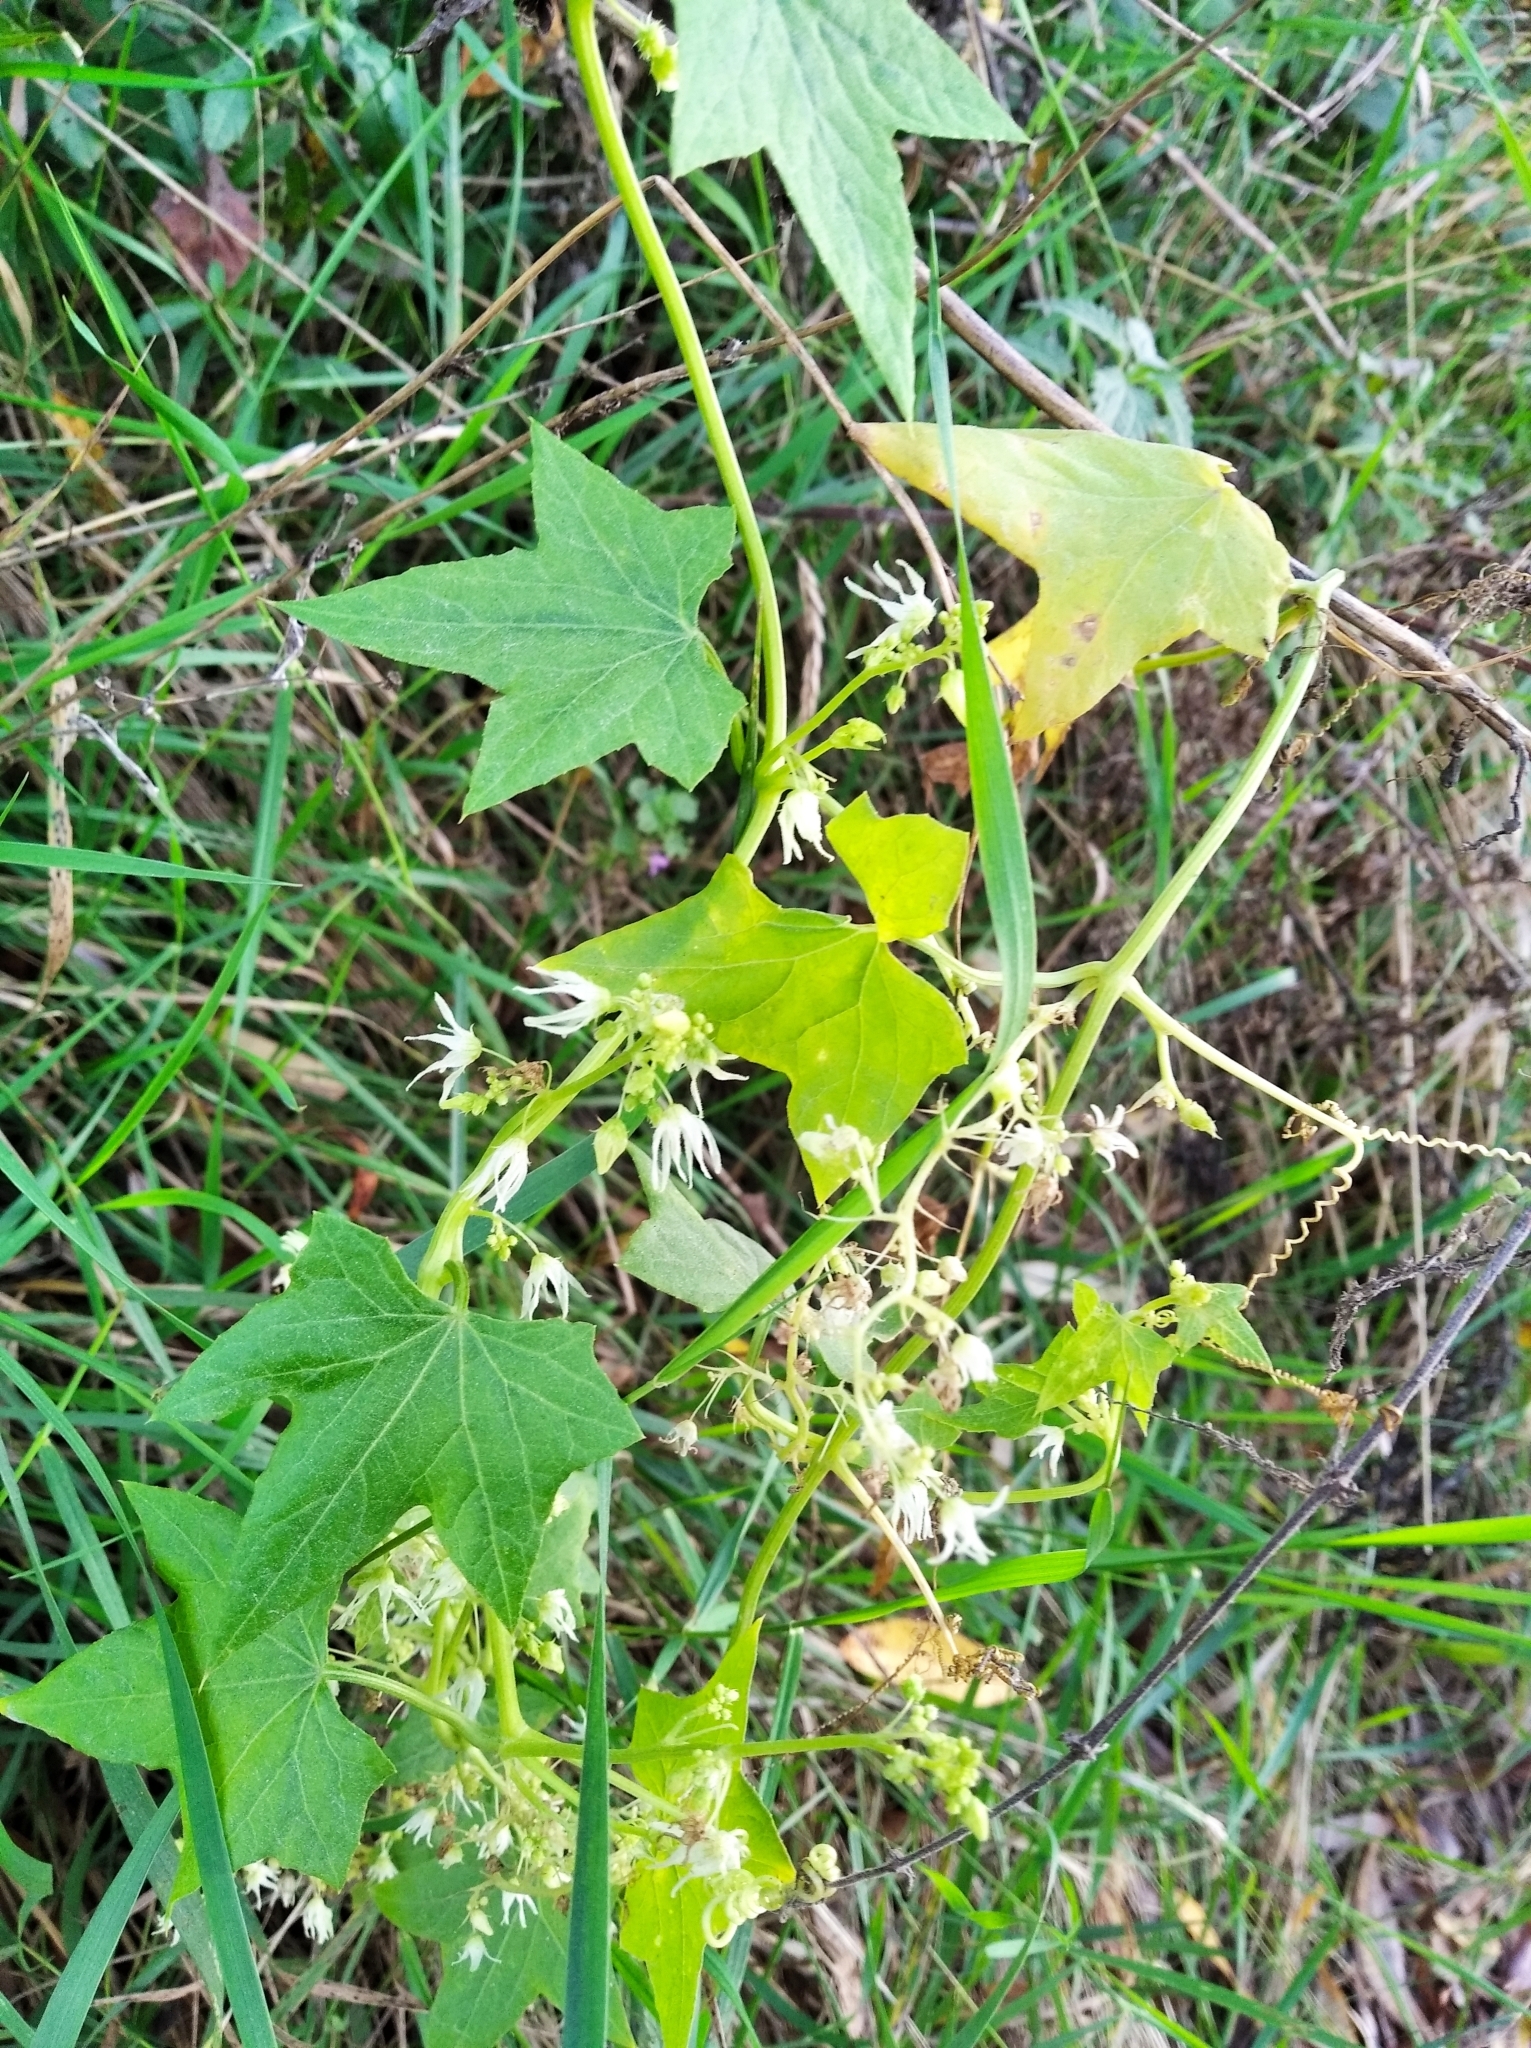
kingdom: Plantae
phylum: Tracheophyta
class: Magnoliopsida
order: Cucurbitales
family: Cucurbitaceae
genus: Echinocystis
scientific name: Echinocystis lobata
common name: Wild cucumber
